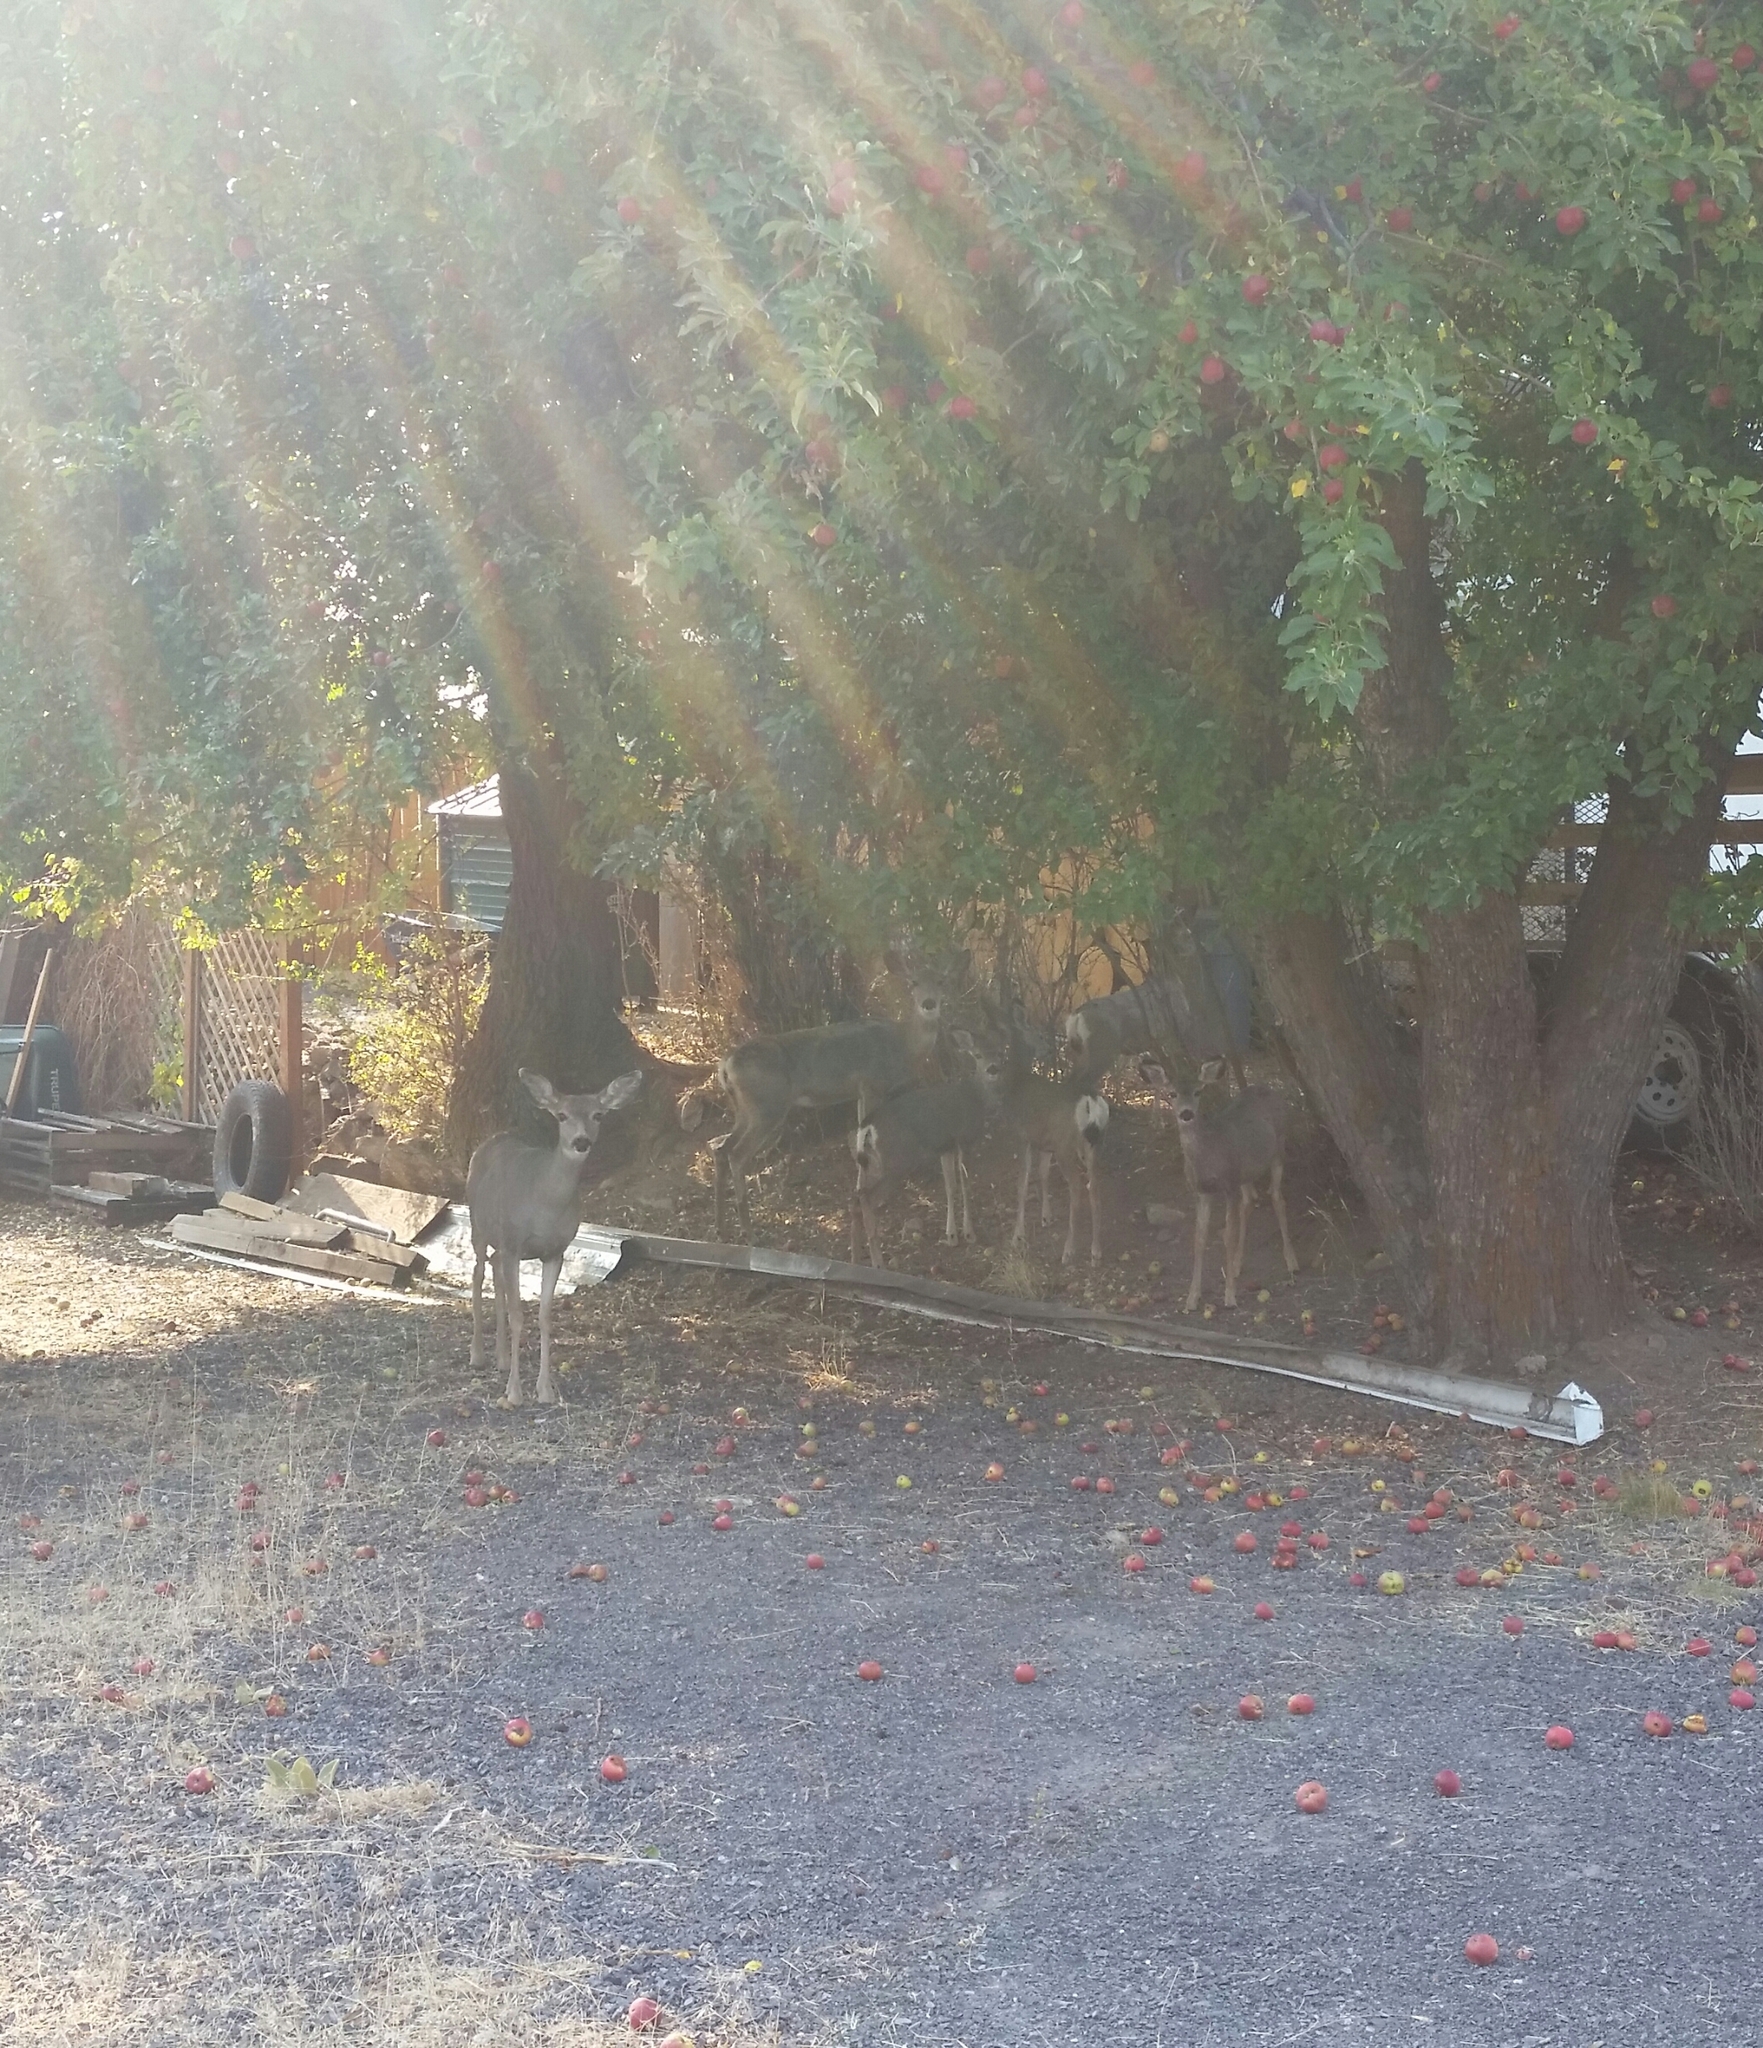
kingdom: Animalia
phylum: Chordata
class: Mammalia
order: Artiodactyla
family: Cervidae
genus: Odocoileus
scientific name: Odocoileus hemionus
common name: Mule deer
